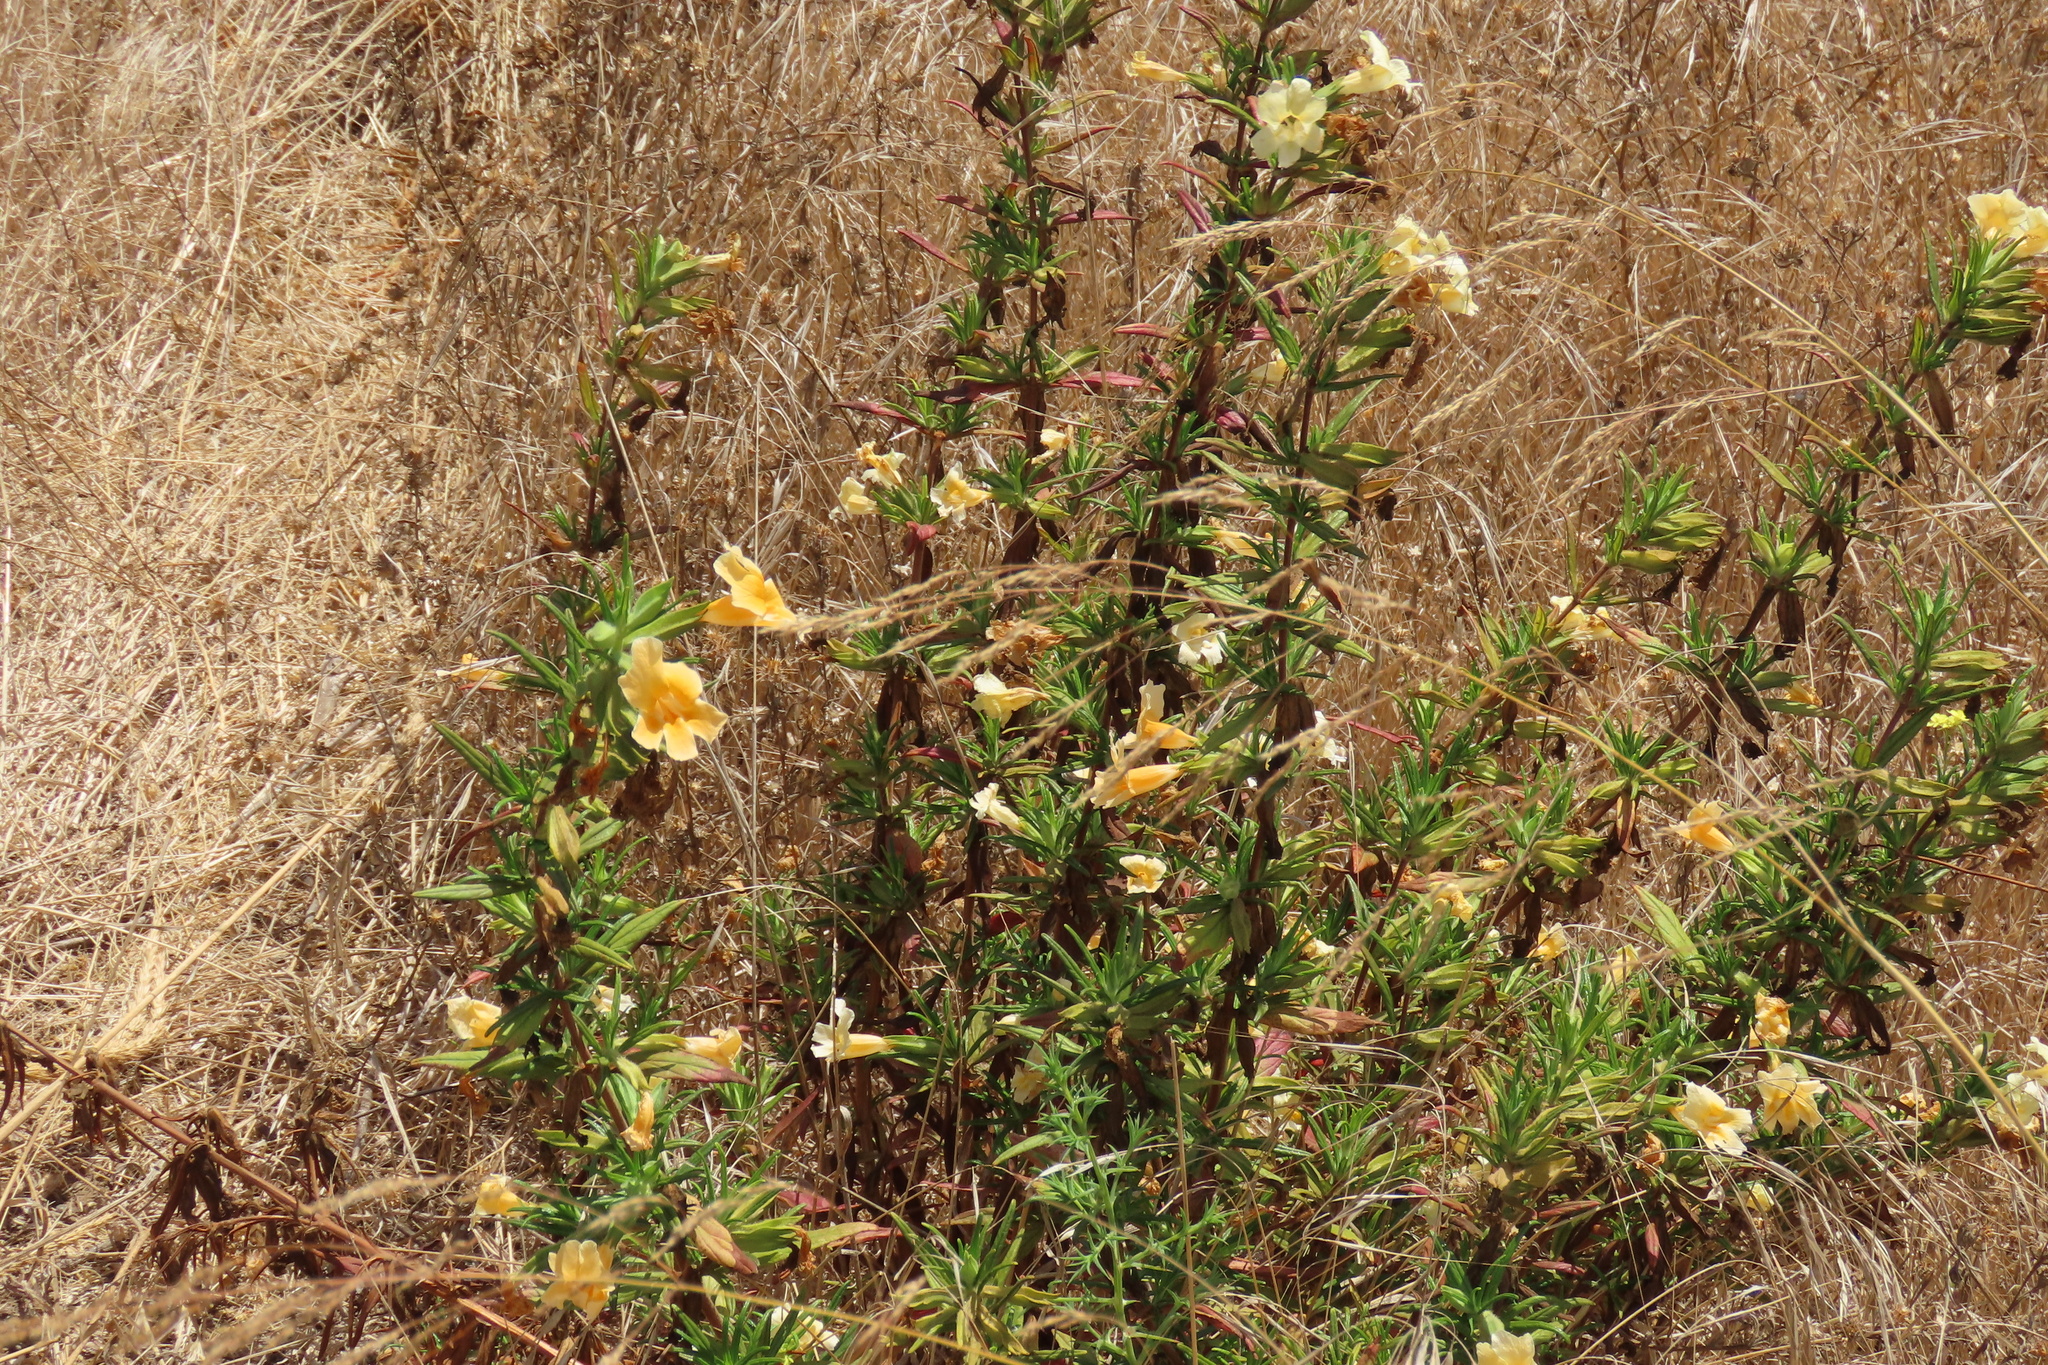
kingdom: Plantae
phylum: Tracheophyta
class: Magnoliopsida
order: Lamiales
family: Phrymaceae
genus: Diplacus
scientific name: Diplacus longiflorus
